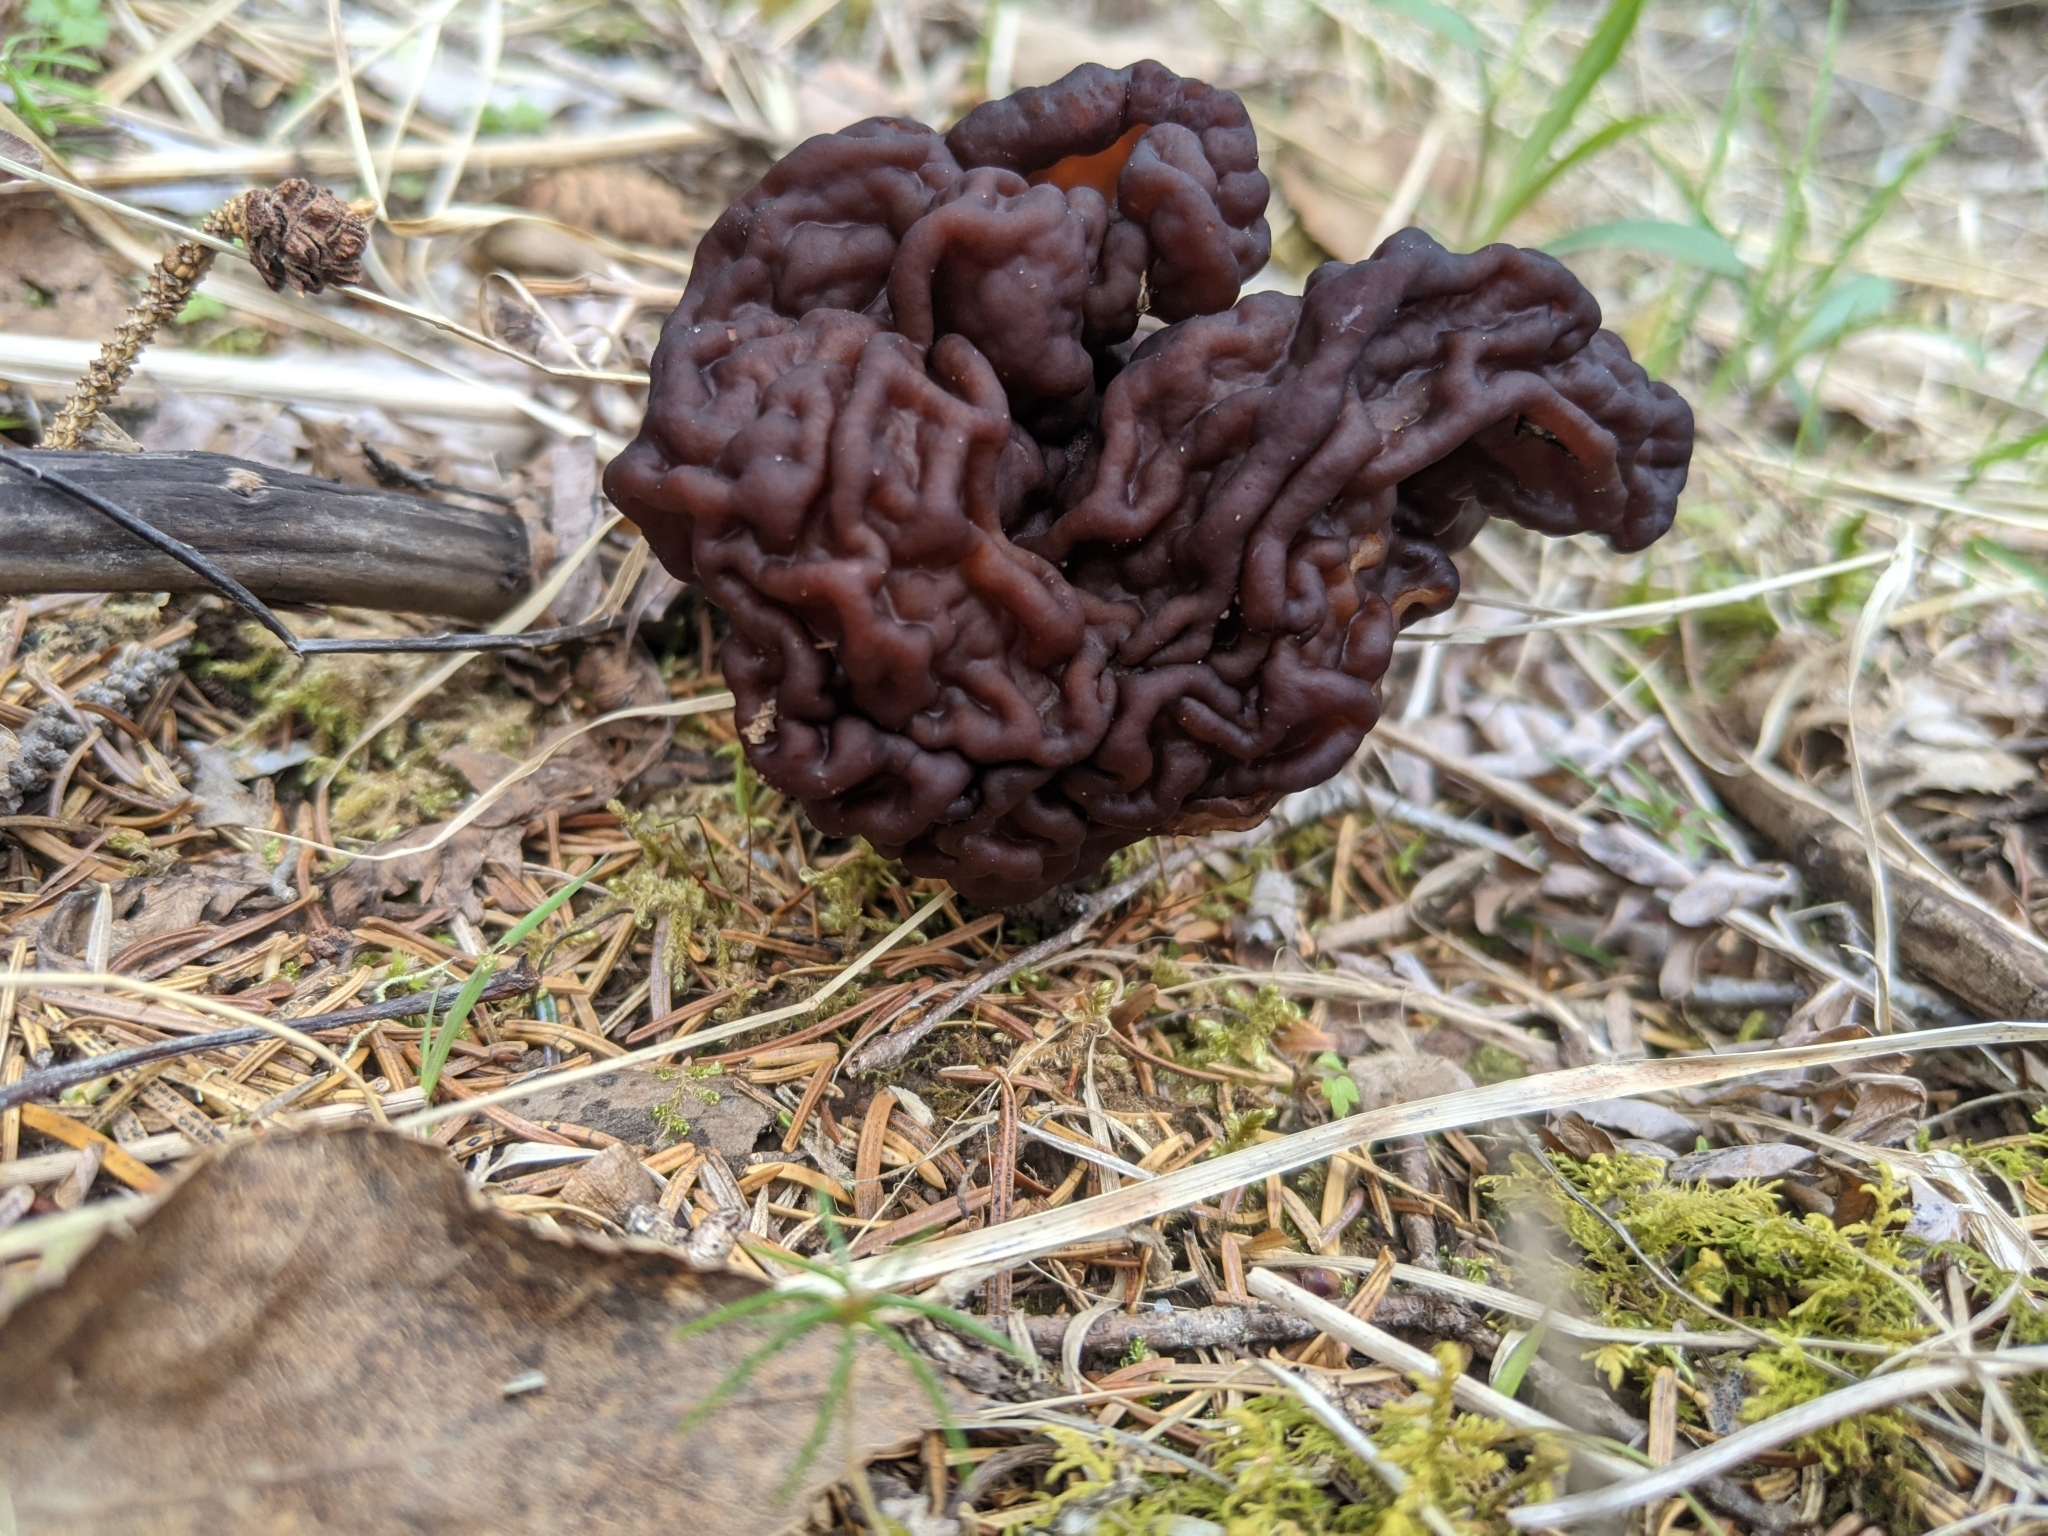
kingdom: Fungi
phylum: Ascomycota
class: Pezizomycetes
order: Pezizales
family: Discinaceae
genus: Gyromitra
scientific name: Gyromitra esculenta
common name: False morel
